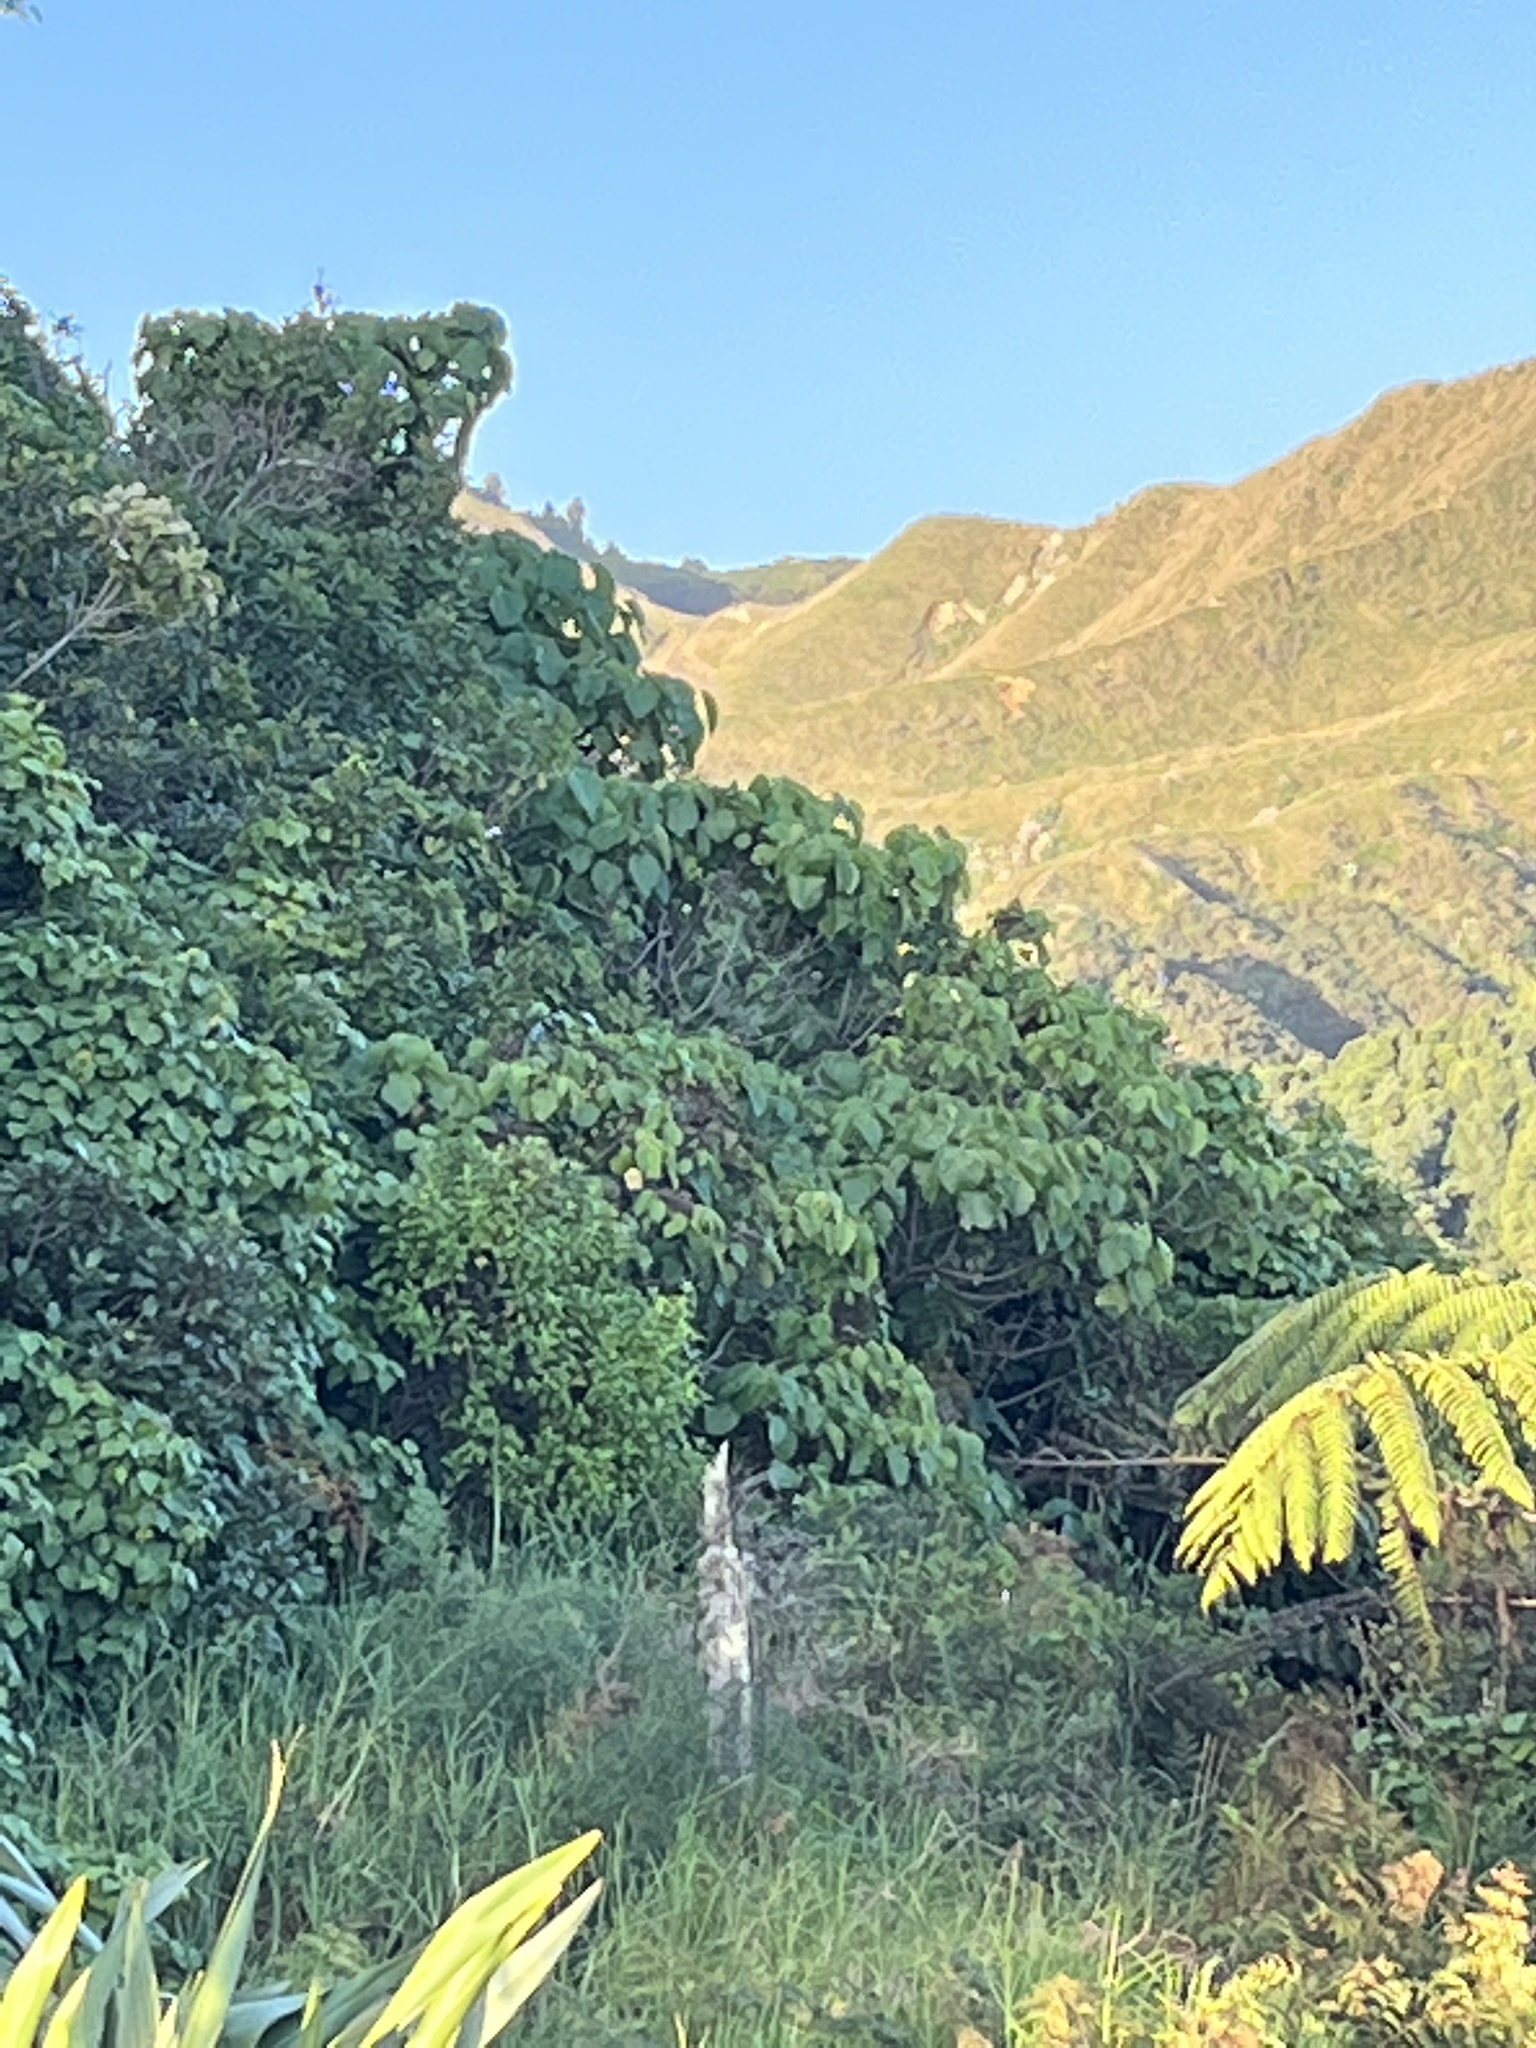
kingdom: Plantae
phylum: Tracheophyta
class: Magnoliopsida
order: Malvales
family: Malvaceae
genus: Entelea
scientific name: Entelea arborescens
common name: New zealand-mulberry
